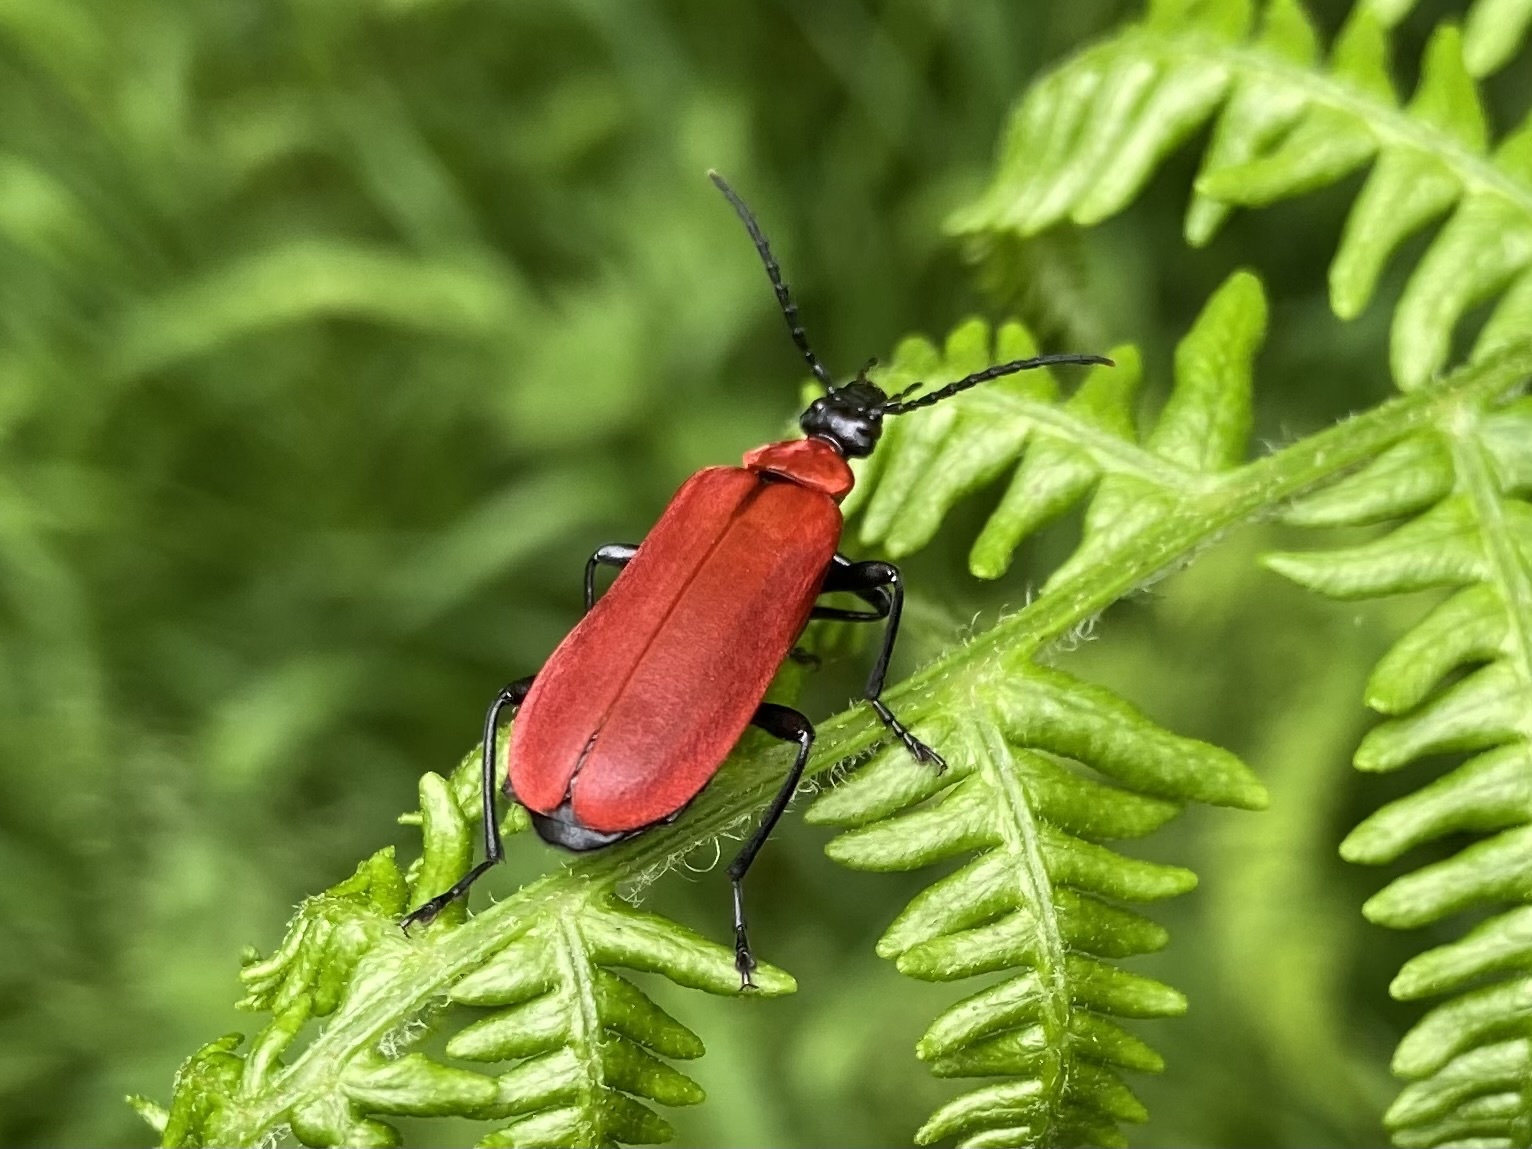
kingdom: Animalia
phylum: Arthropoda
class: Insecta
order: Coleoptera
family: Pyrochroidae
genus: Pyrochroa
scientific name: Pyrochroa coccinea
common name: Black-headed cardinal beetle
